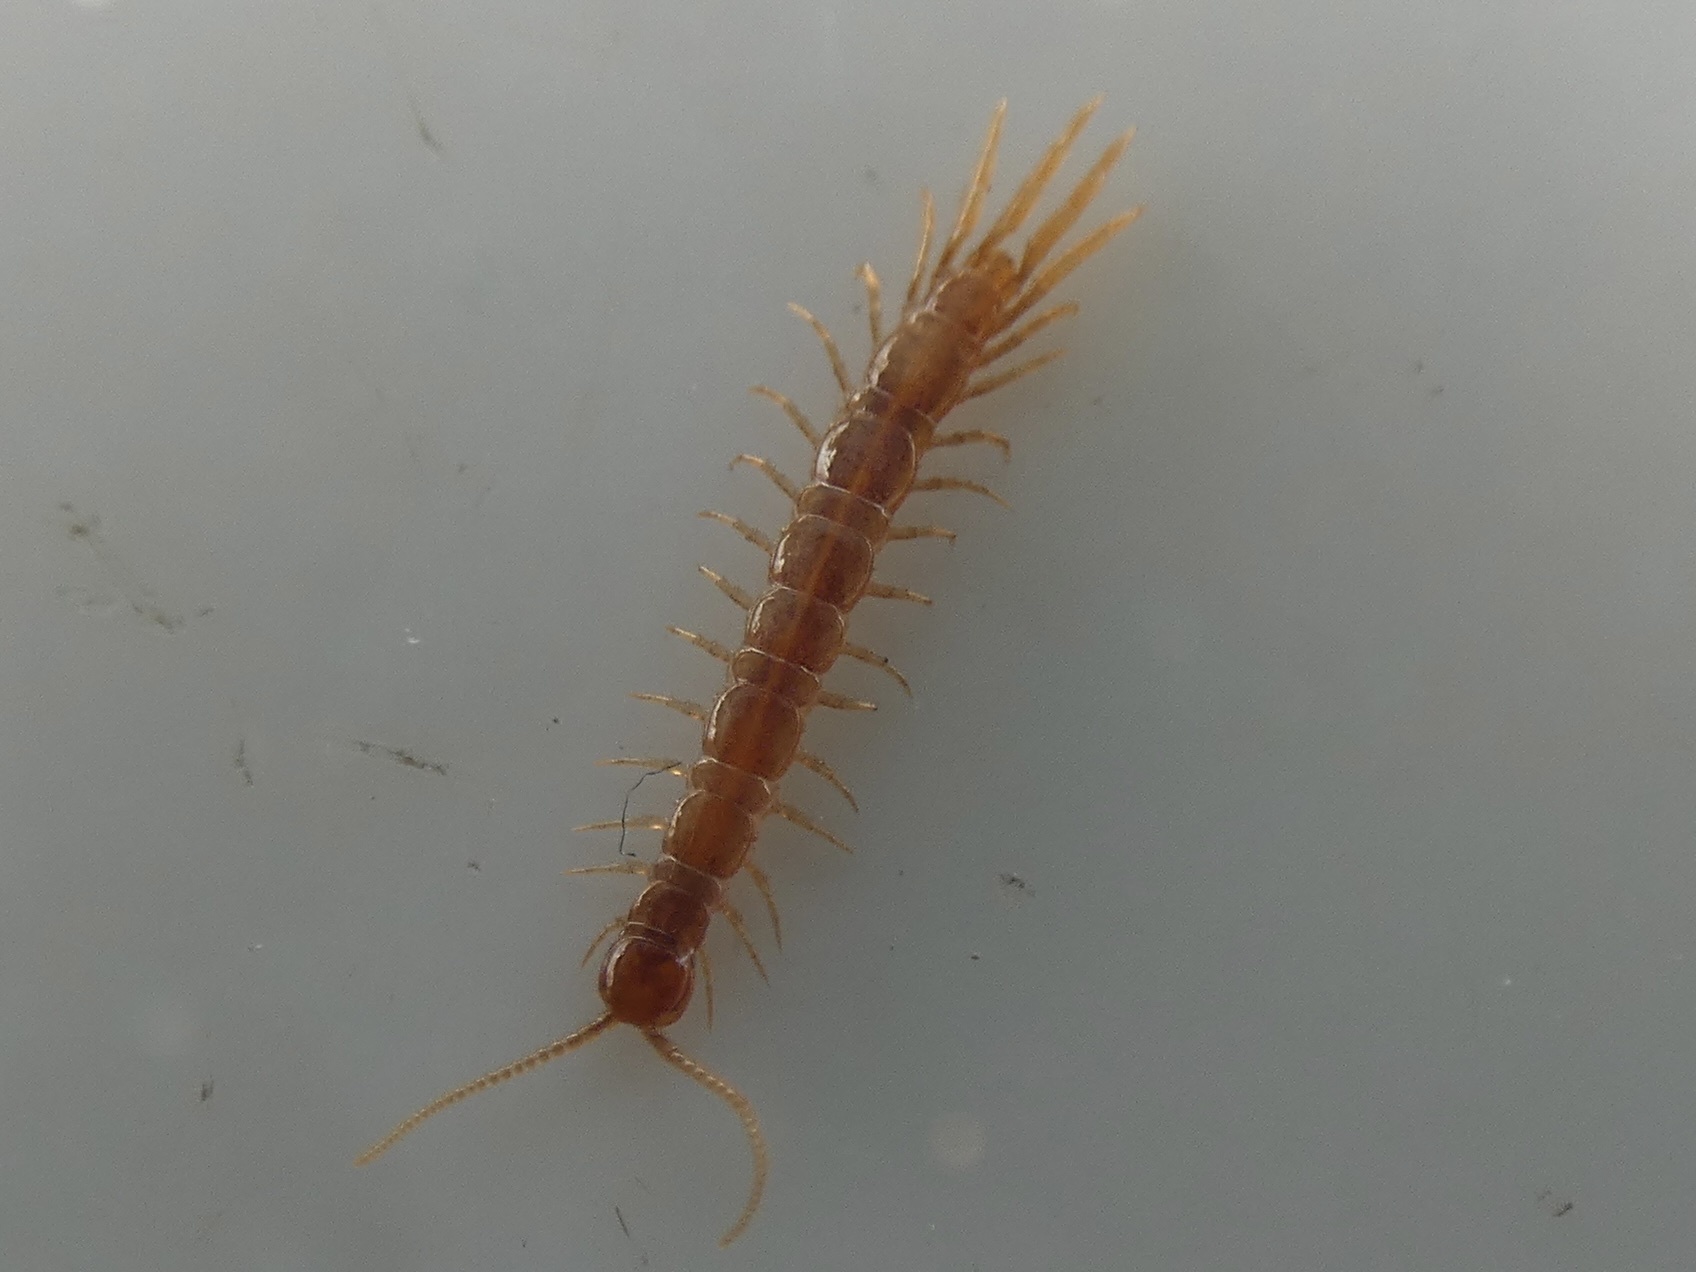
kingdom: Animalia
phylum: Arthropoda
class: Chilopoda
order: Lithobiomorpha
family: Lithobiidae
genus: Lithobius
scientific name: Lithobius microps
